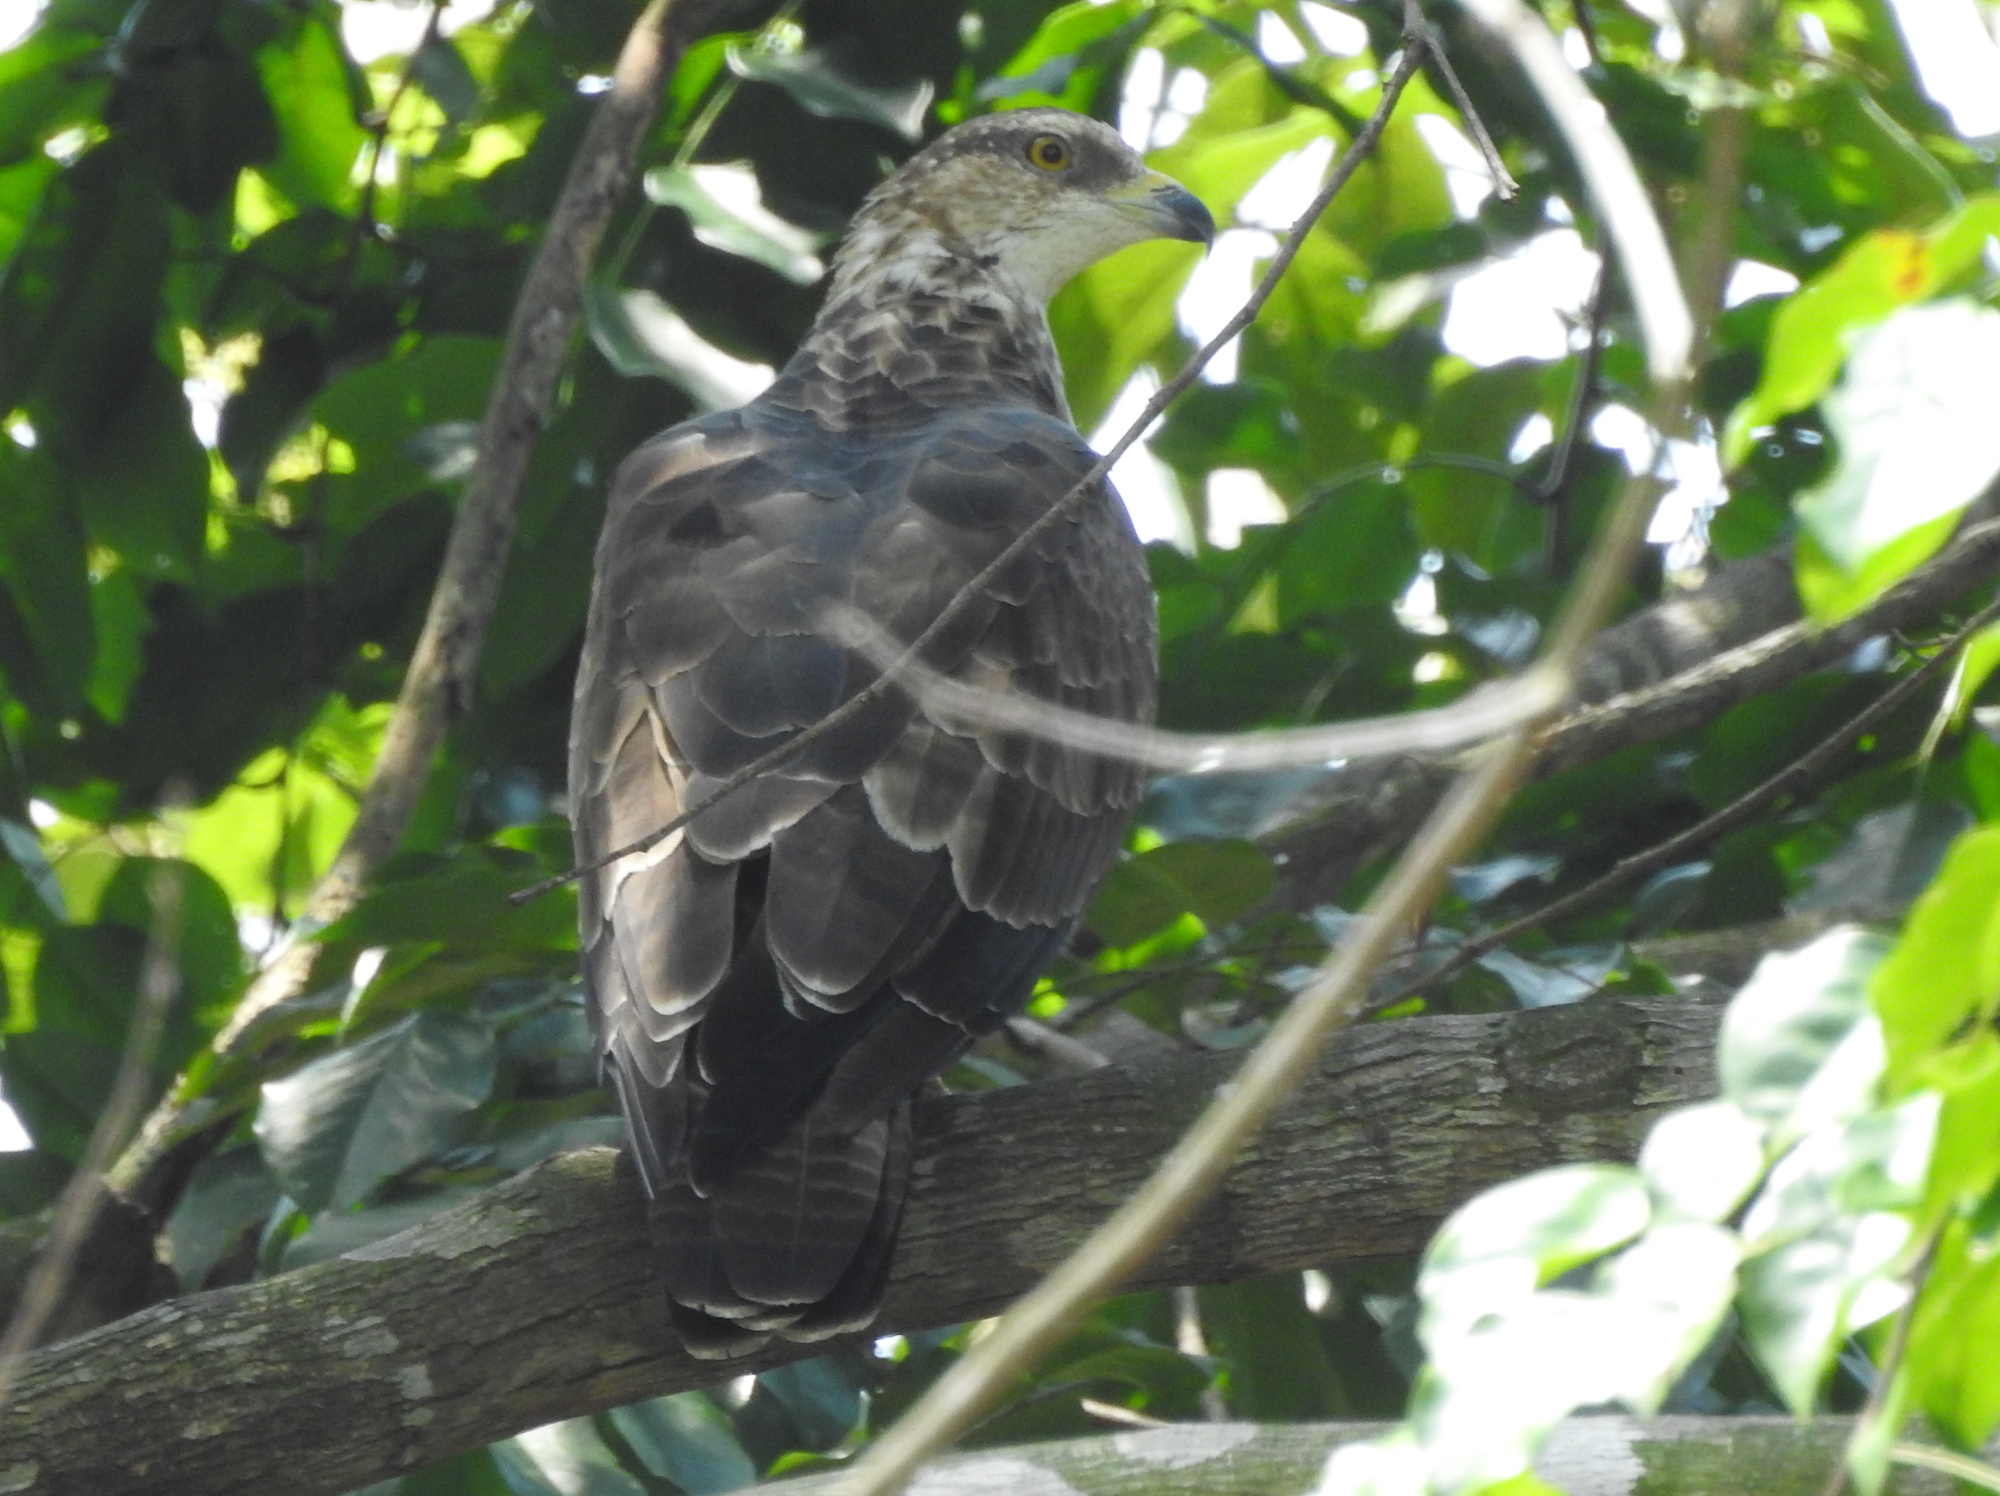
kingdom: Animalia
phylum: Chordata
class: Aves
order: Accipitriformes
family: Accipitridae
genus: Pernis
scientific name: Pernis ptilorhynchus
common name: Crested honey buzzard
